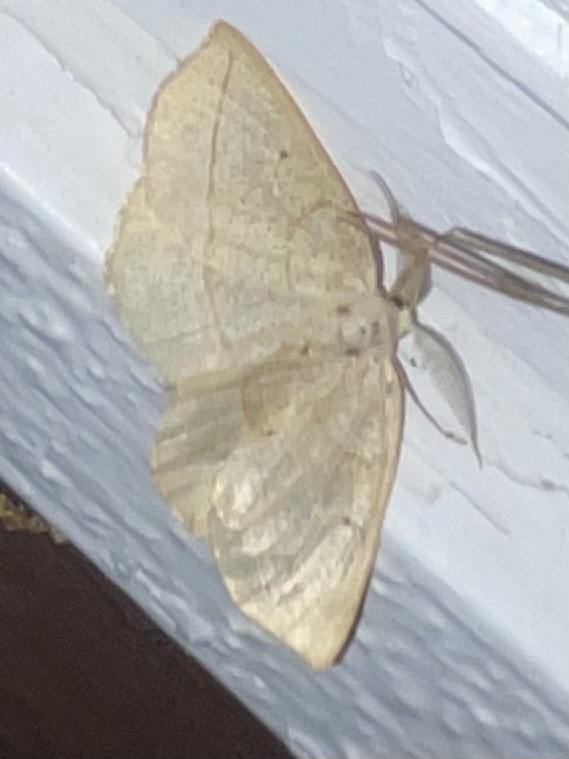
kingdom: Animalia
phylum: Arthropoda
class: Insecta
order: Lepidoptera
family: Geometridae
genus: Eusarca
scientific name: Eusarca confusaria
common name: Confused eusarca
